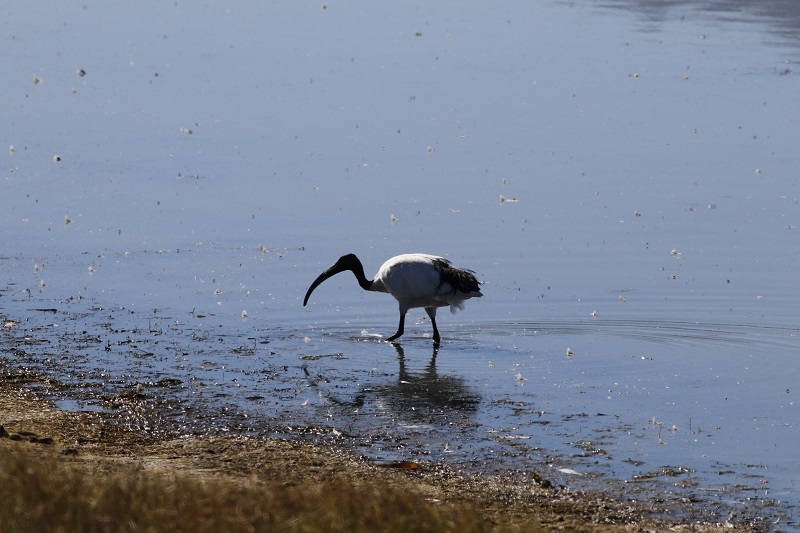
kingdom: Animalia
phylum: Chordata
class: Aves
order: Pelecaniformes
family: Threskiornithidae
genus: Threskiornis
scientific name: Threskiornis aethiopicus
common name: Sacred ibis
